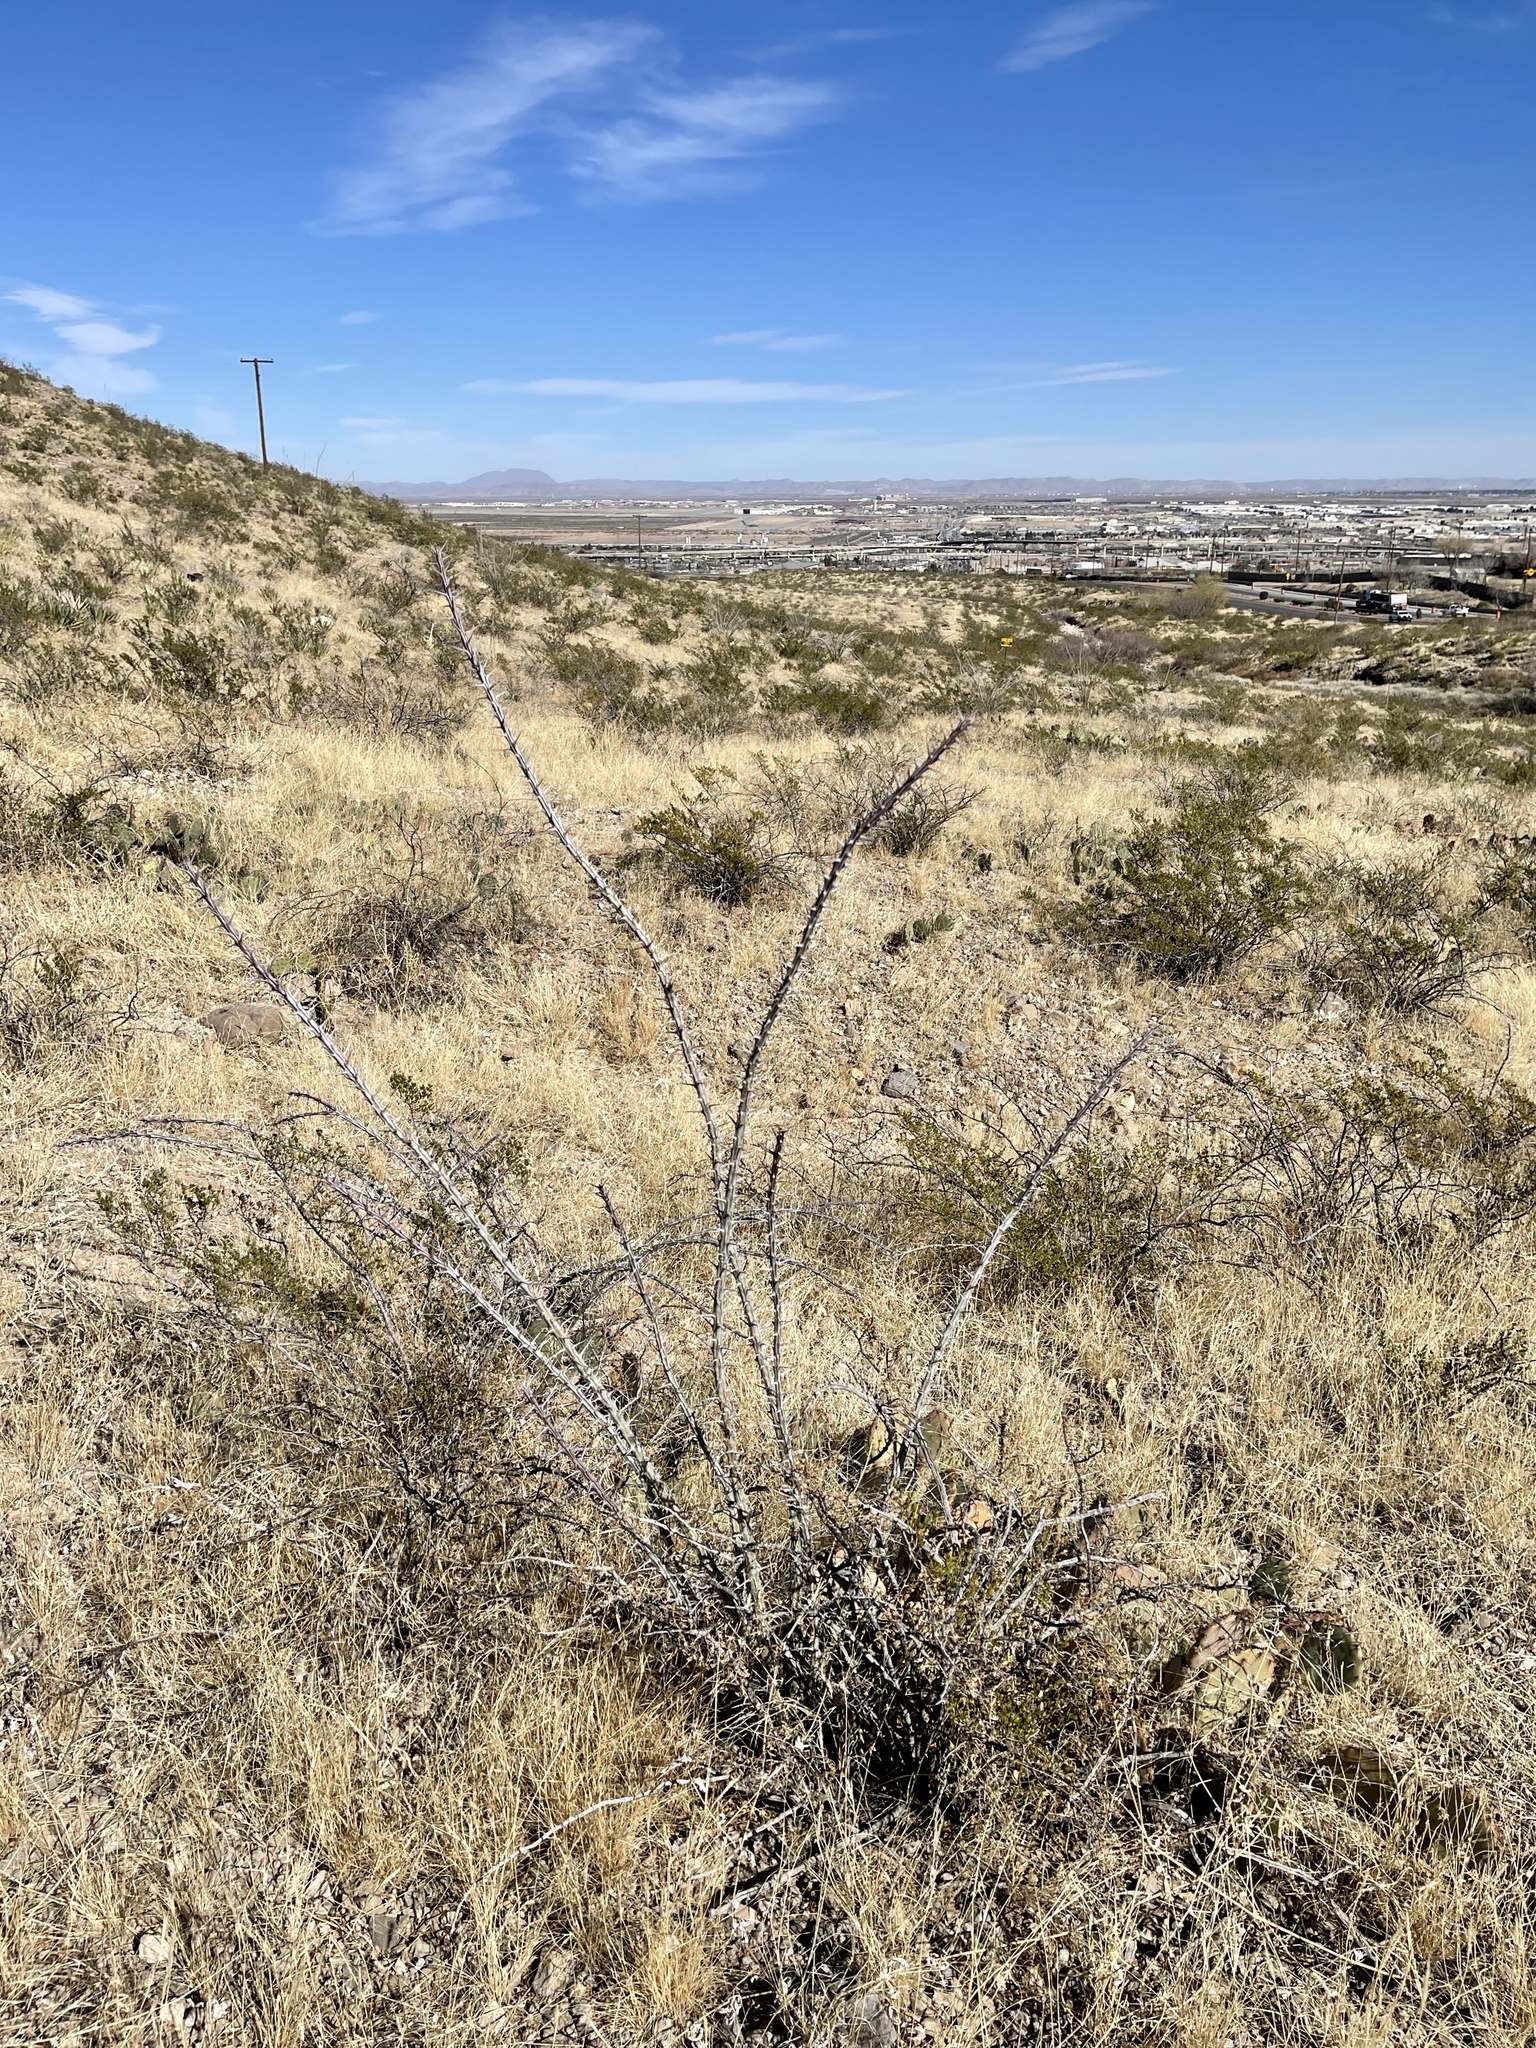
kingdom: Plantae
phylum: Tracheophyta
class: Magnoliopsida
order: Ericales
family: Fouquieriaceae
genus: Fouquieria
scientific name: Fouquieria splendens
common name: Vine-cactus
